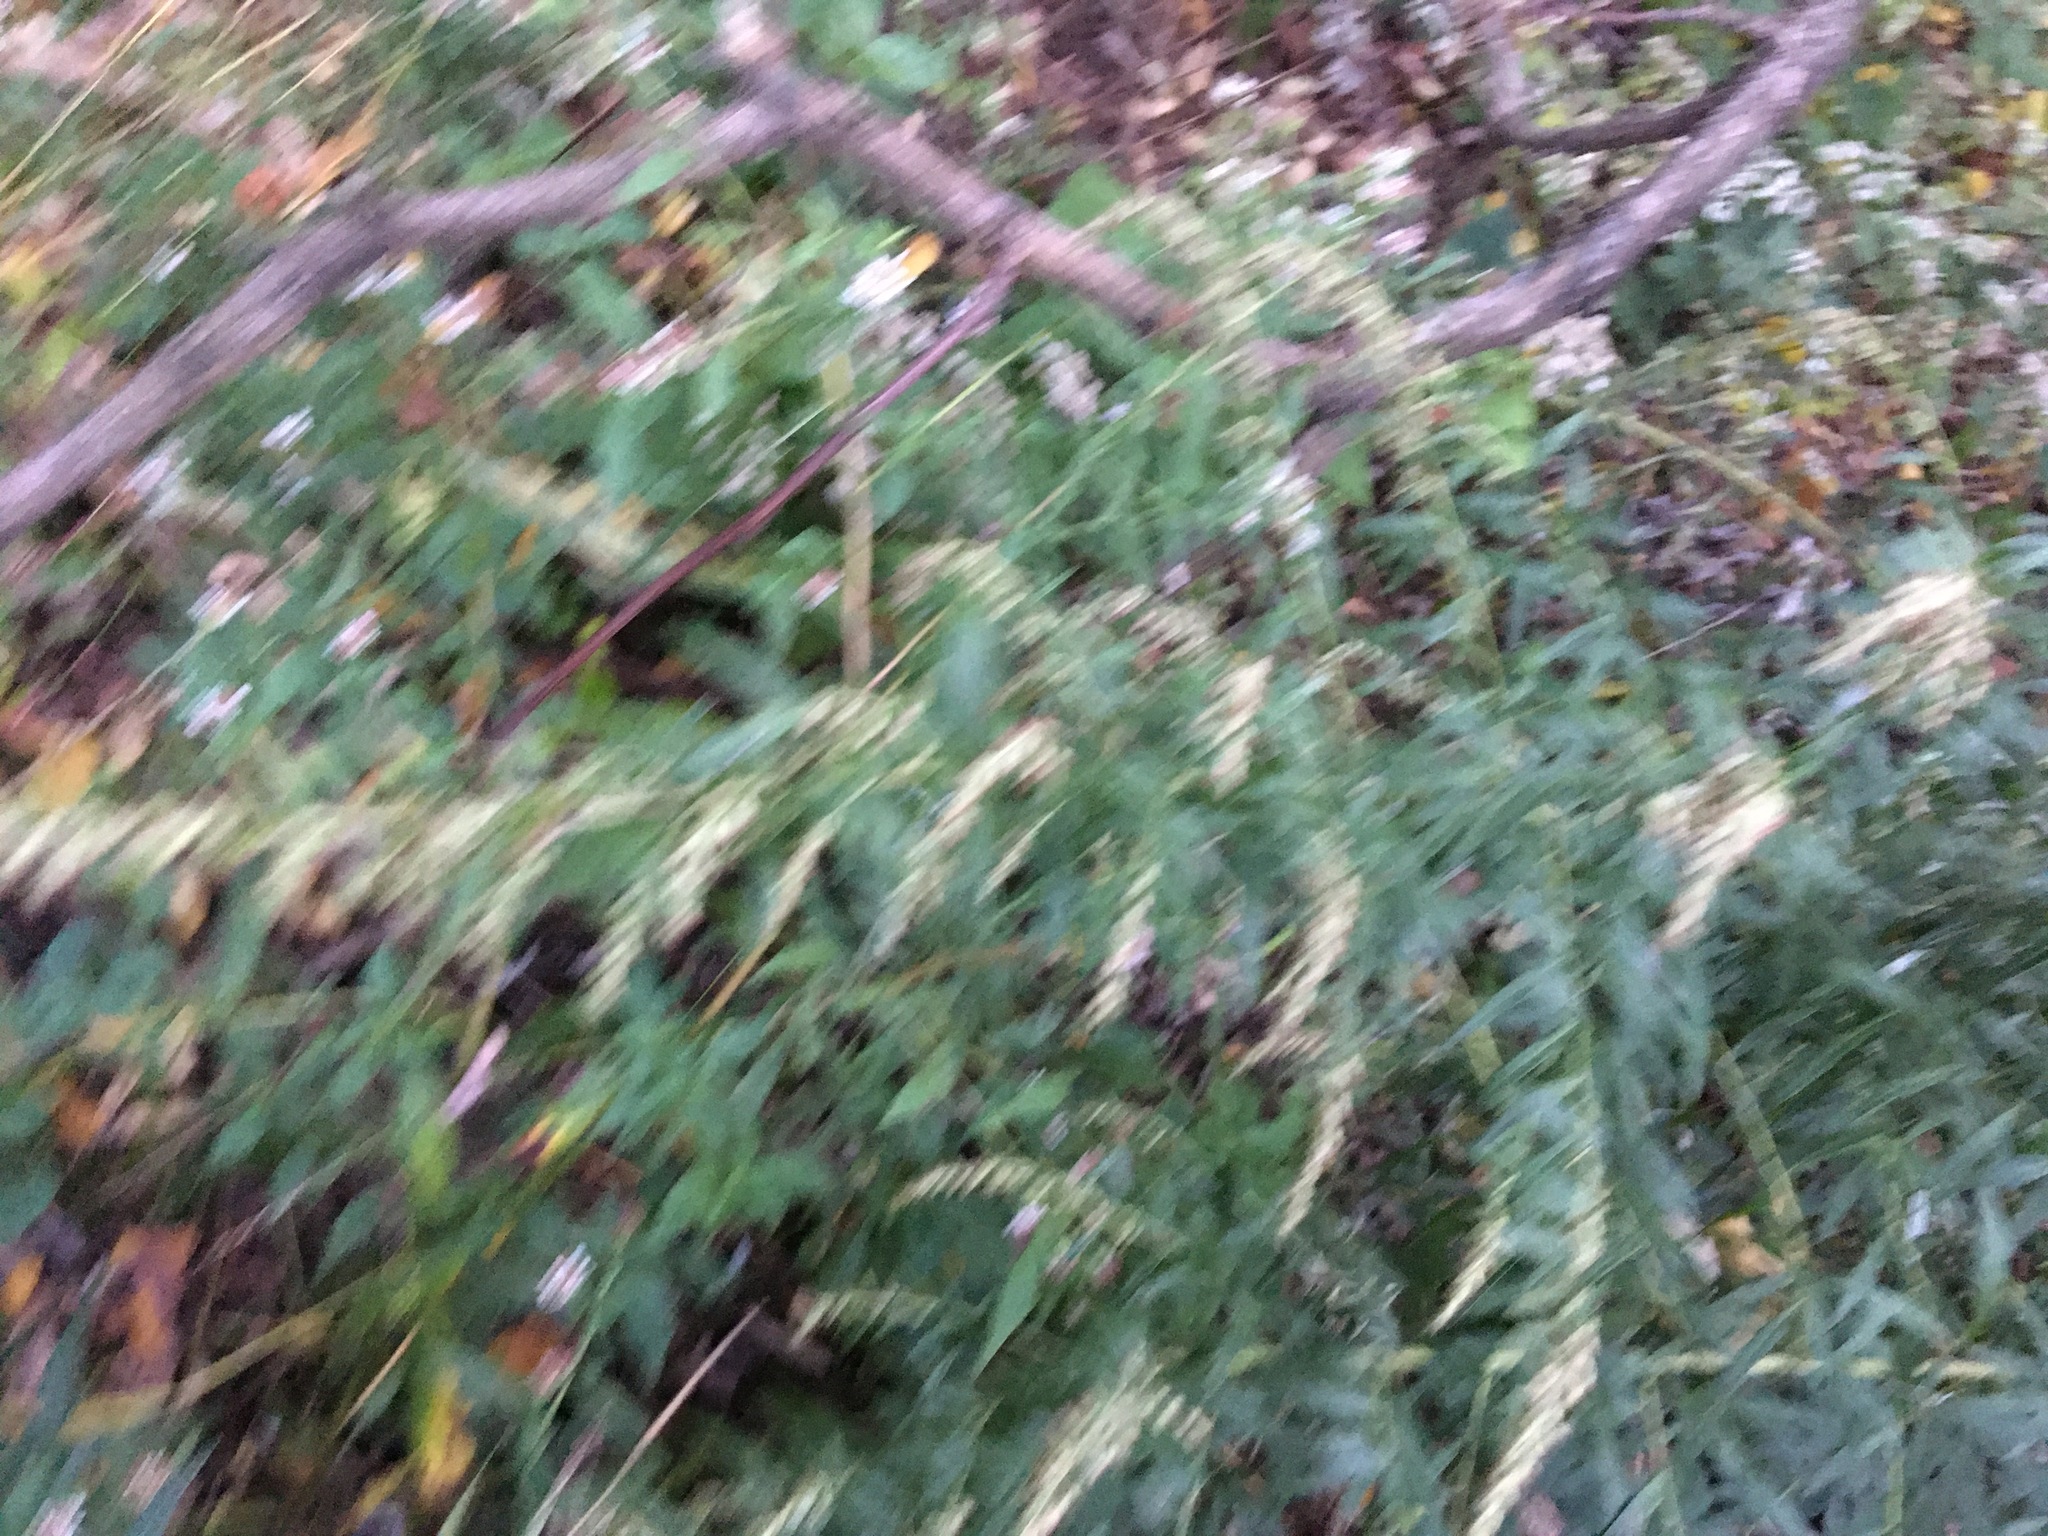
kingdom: Plantae
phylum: Tracheophyta
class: Magnoliopsida
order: Asterales
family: Asteraceae
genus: Artemisia
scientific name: Artemisia vulgaris
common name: Mugwort
